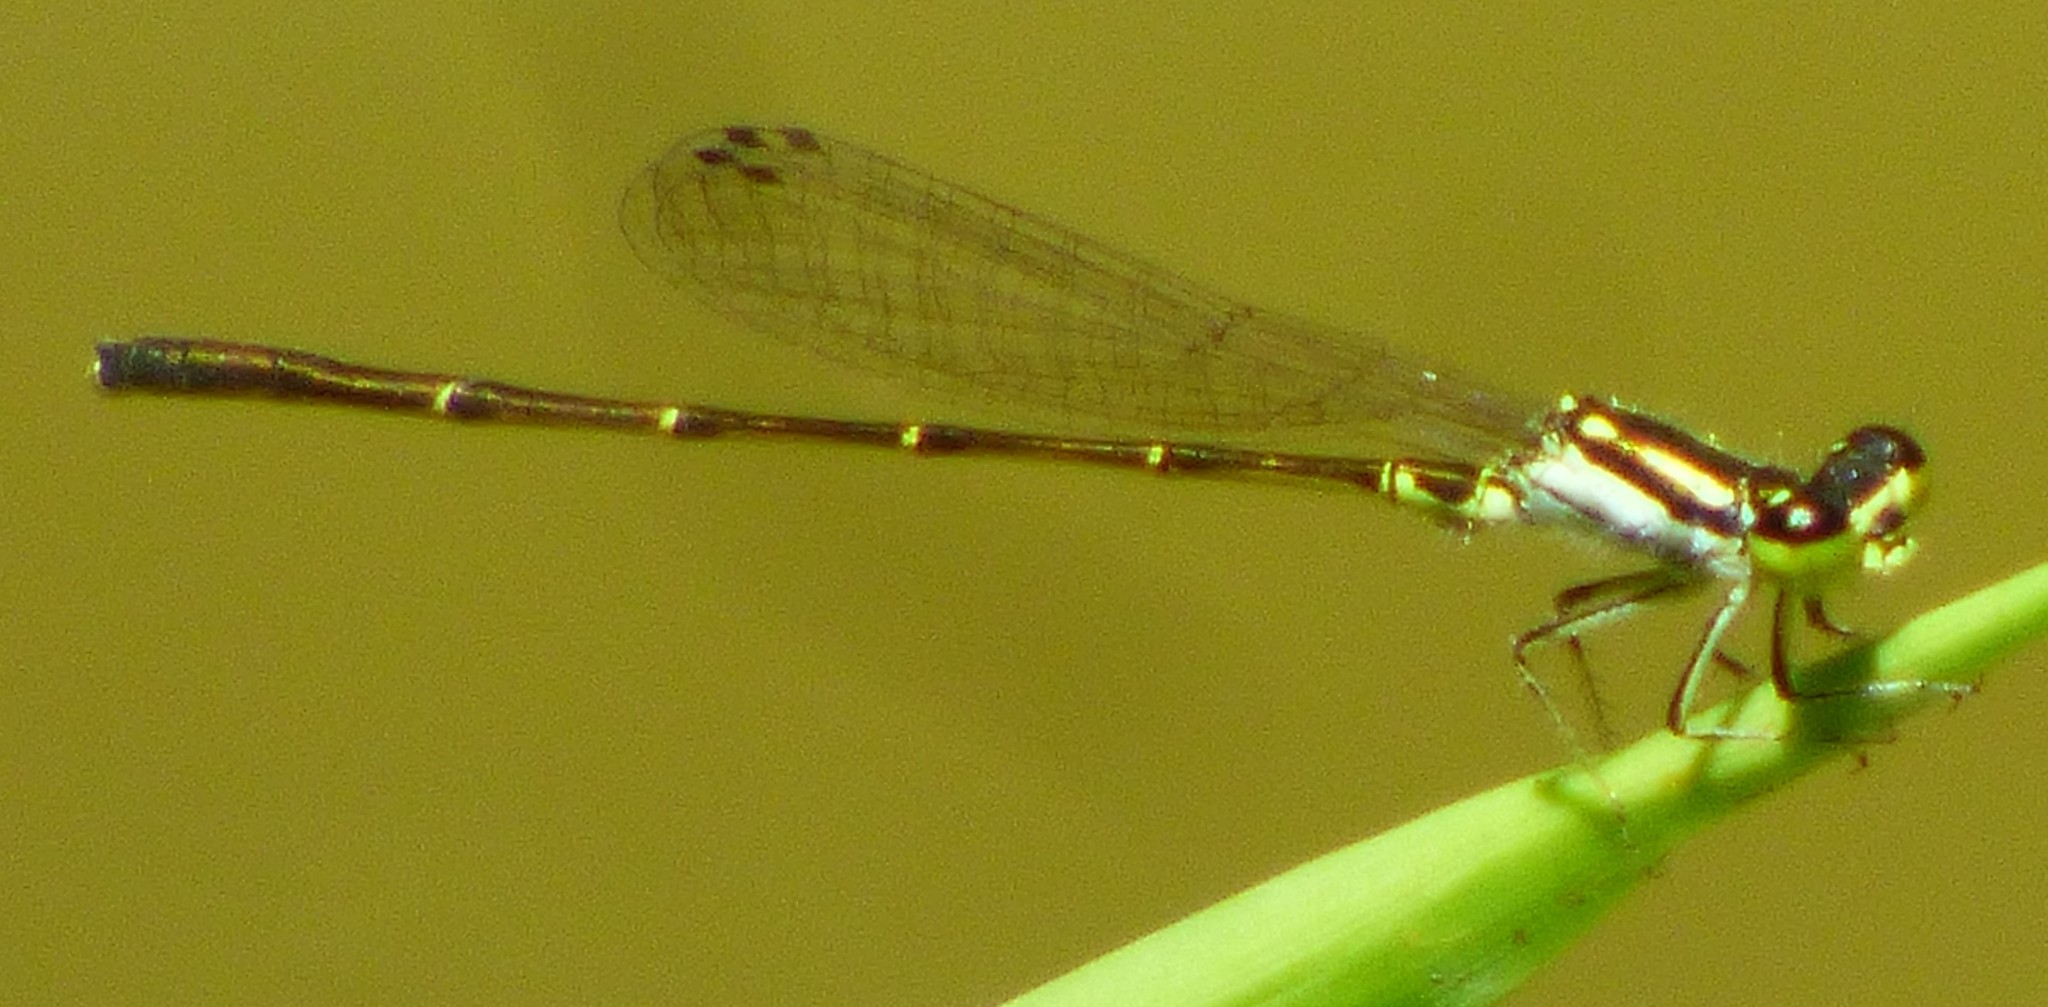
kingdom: Animalia
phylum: Arthropoda
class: Insecta
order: Odonata
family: Coenagrionidae
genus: Ischnura
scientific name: Ischnura posita
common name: Fragile forktail
